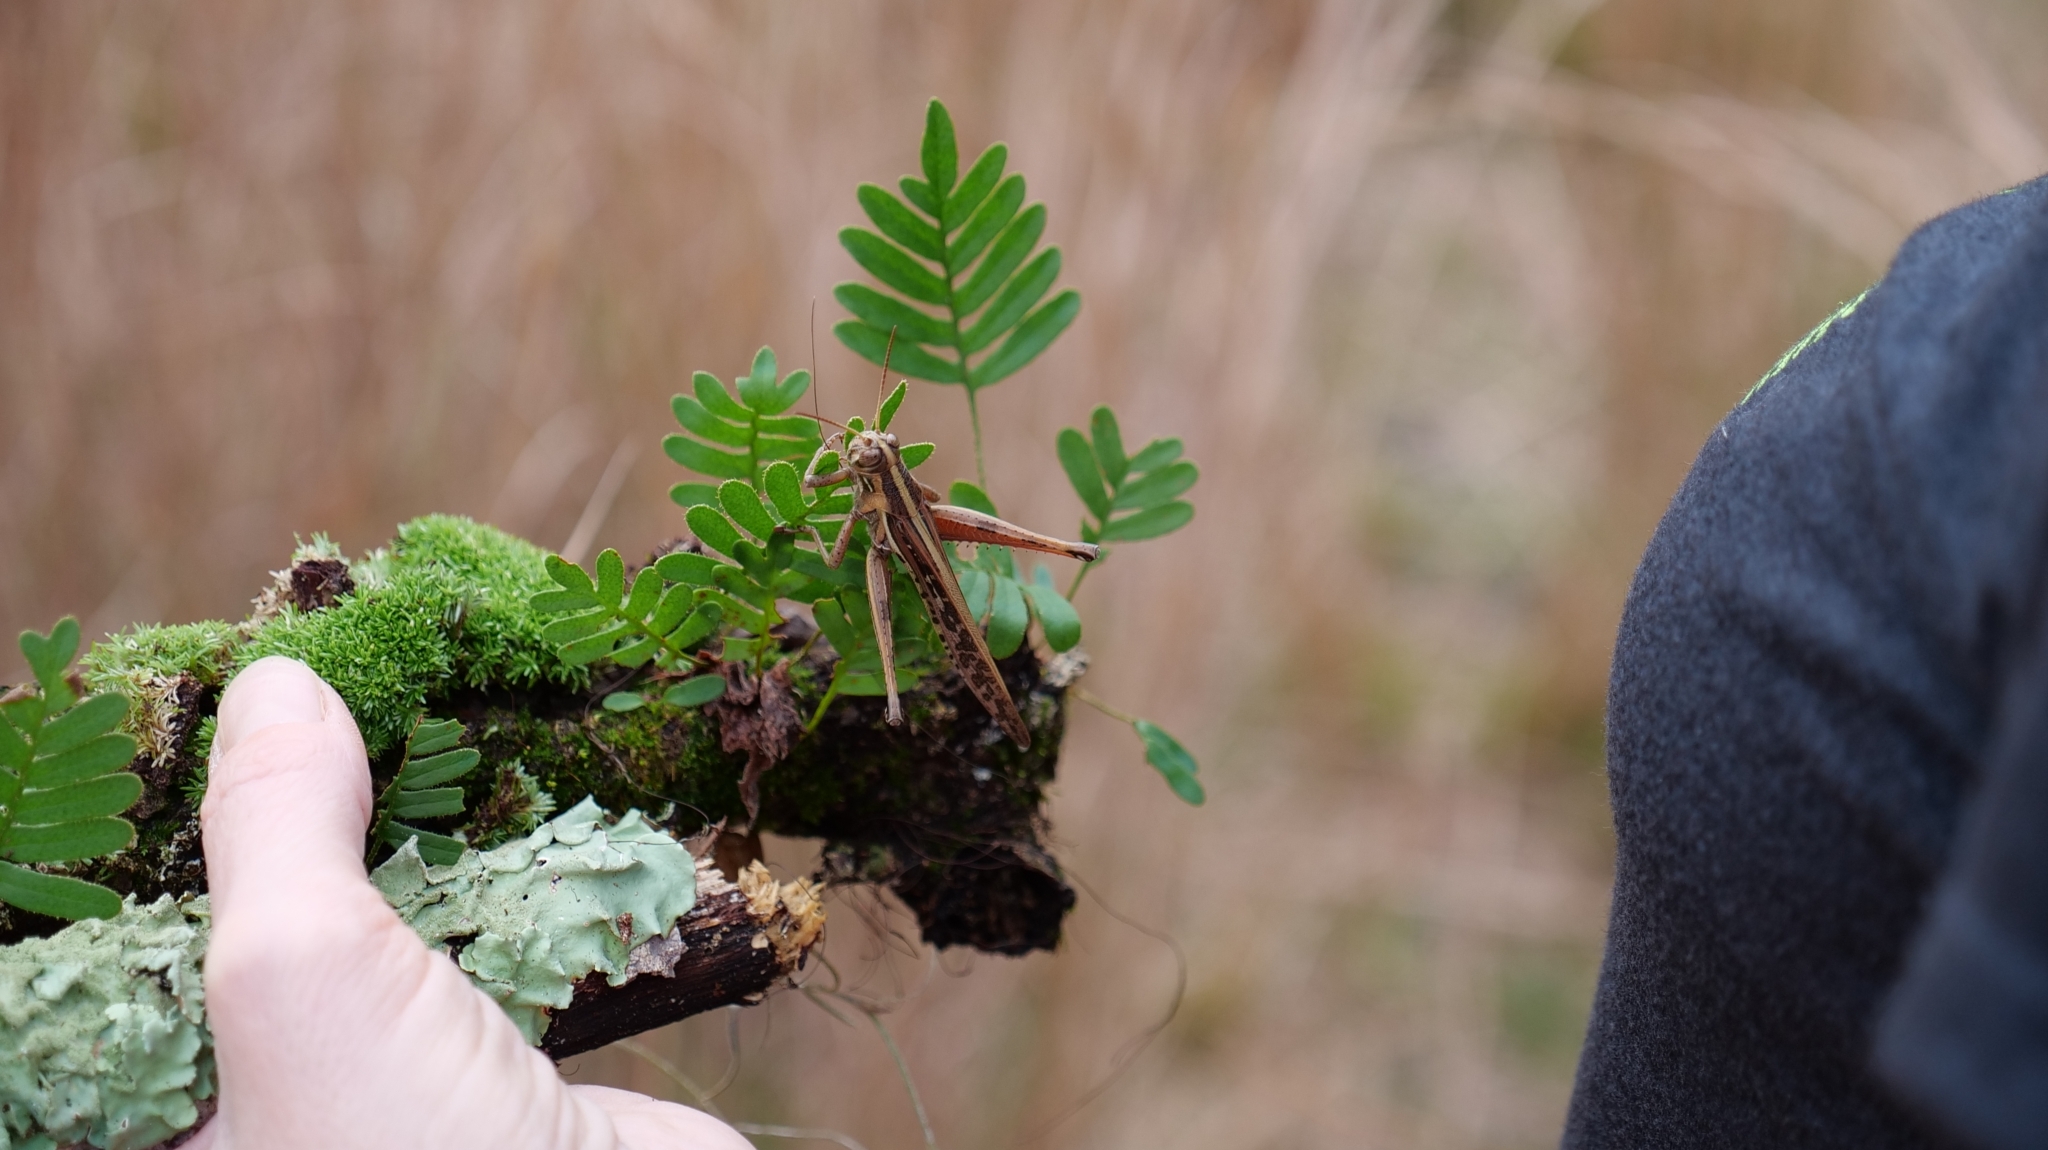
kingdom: Animalia
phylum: Arthropoda
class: Insecta
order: Orthoptera
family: Acrididae
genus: Schistocerca
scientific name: Schistocerca americana
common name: American bird locust
